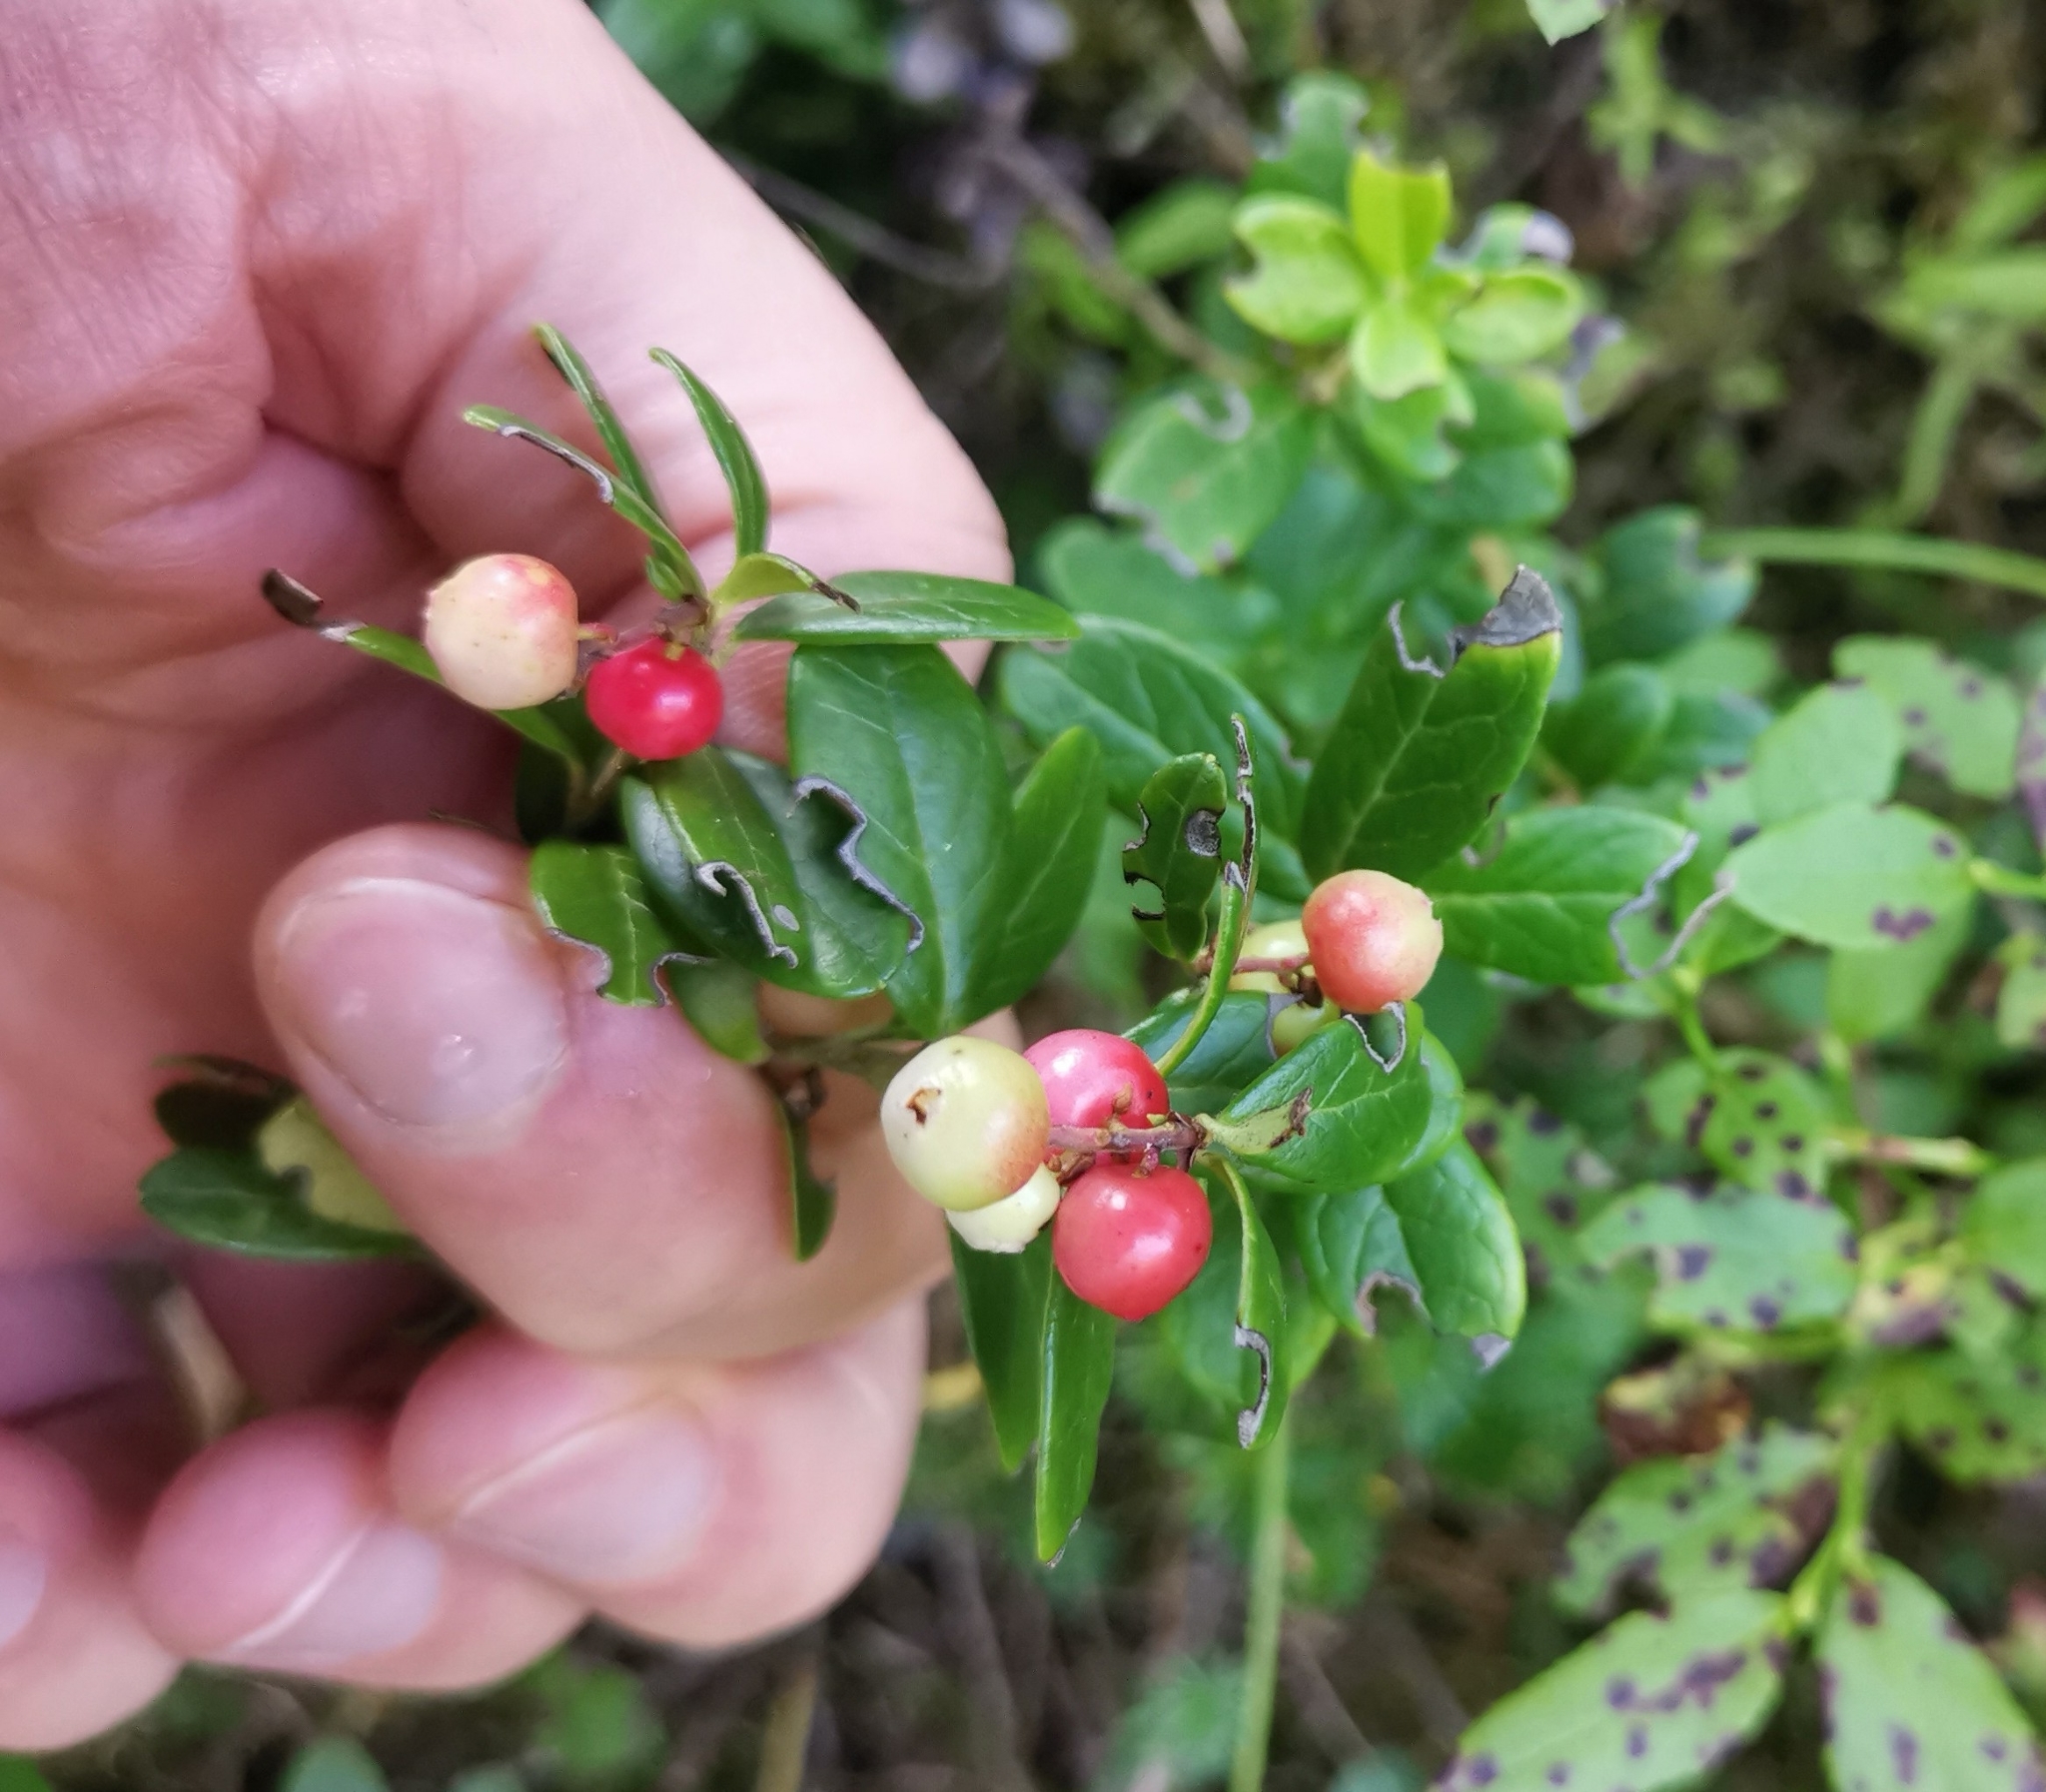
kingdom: Plantae
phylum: Tracheophyta
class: Magnoliopsida
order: Ericales
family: Ericaceae
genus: Vaccinium
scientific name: Vaccinium vitis-idaea
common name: Cowberry
